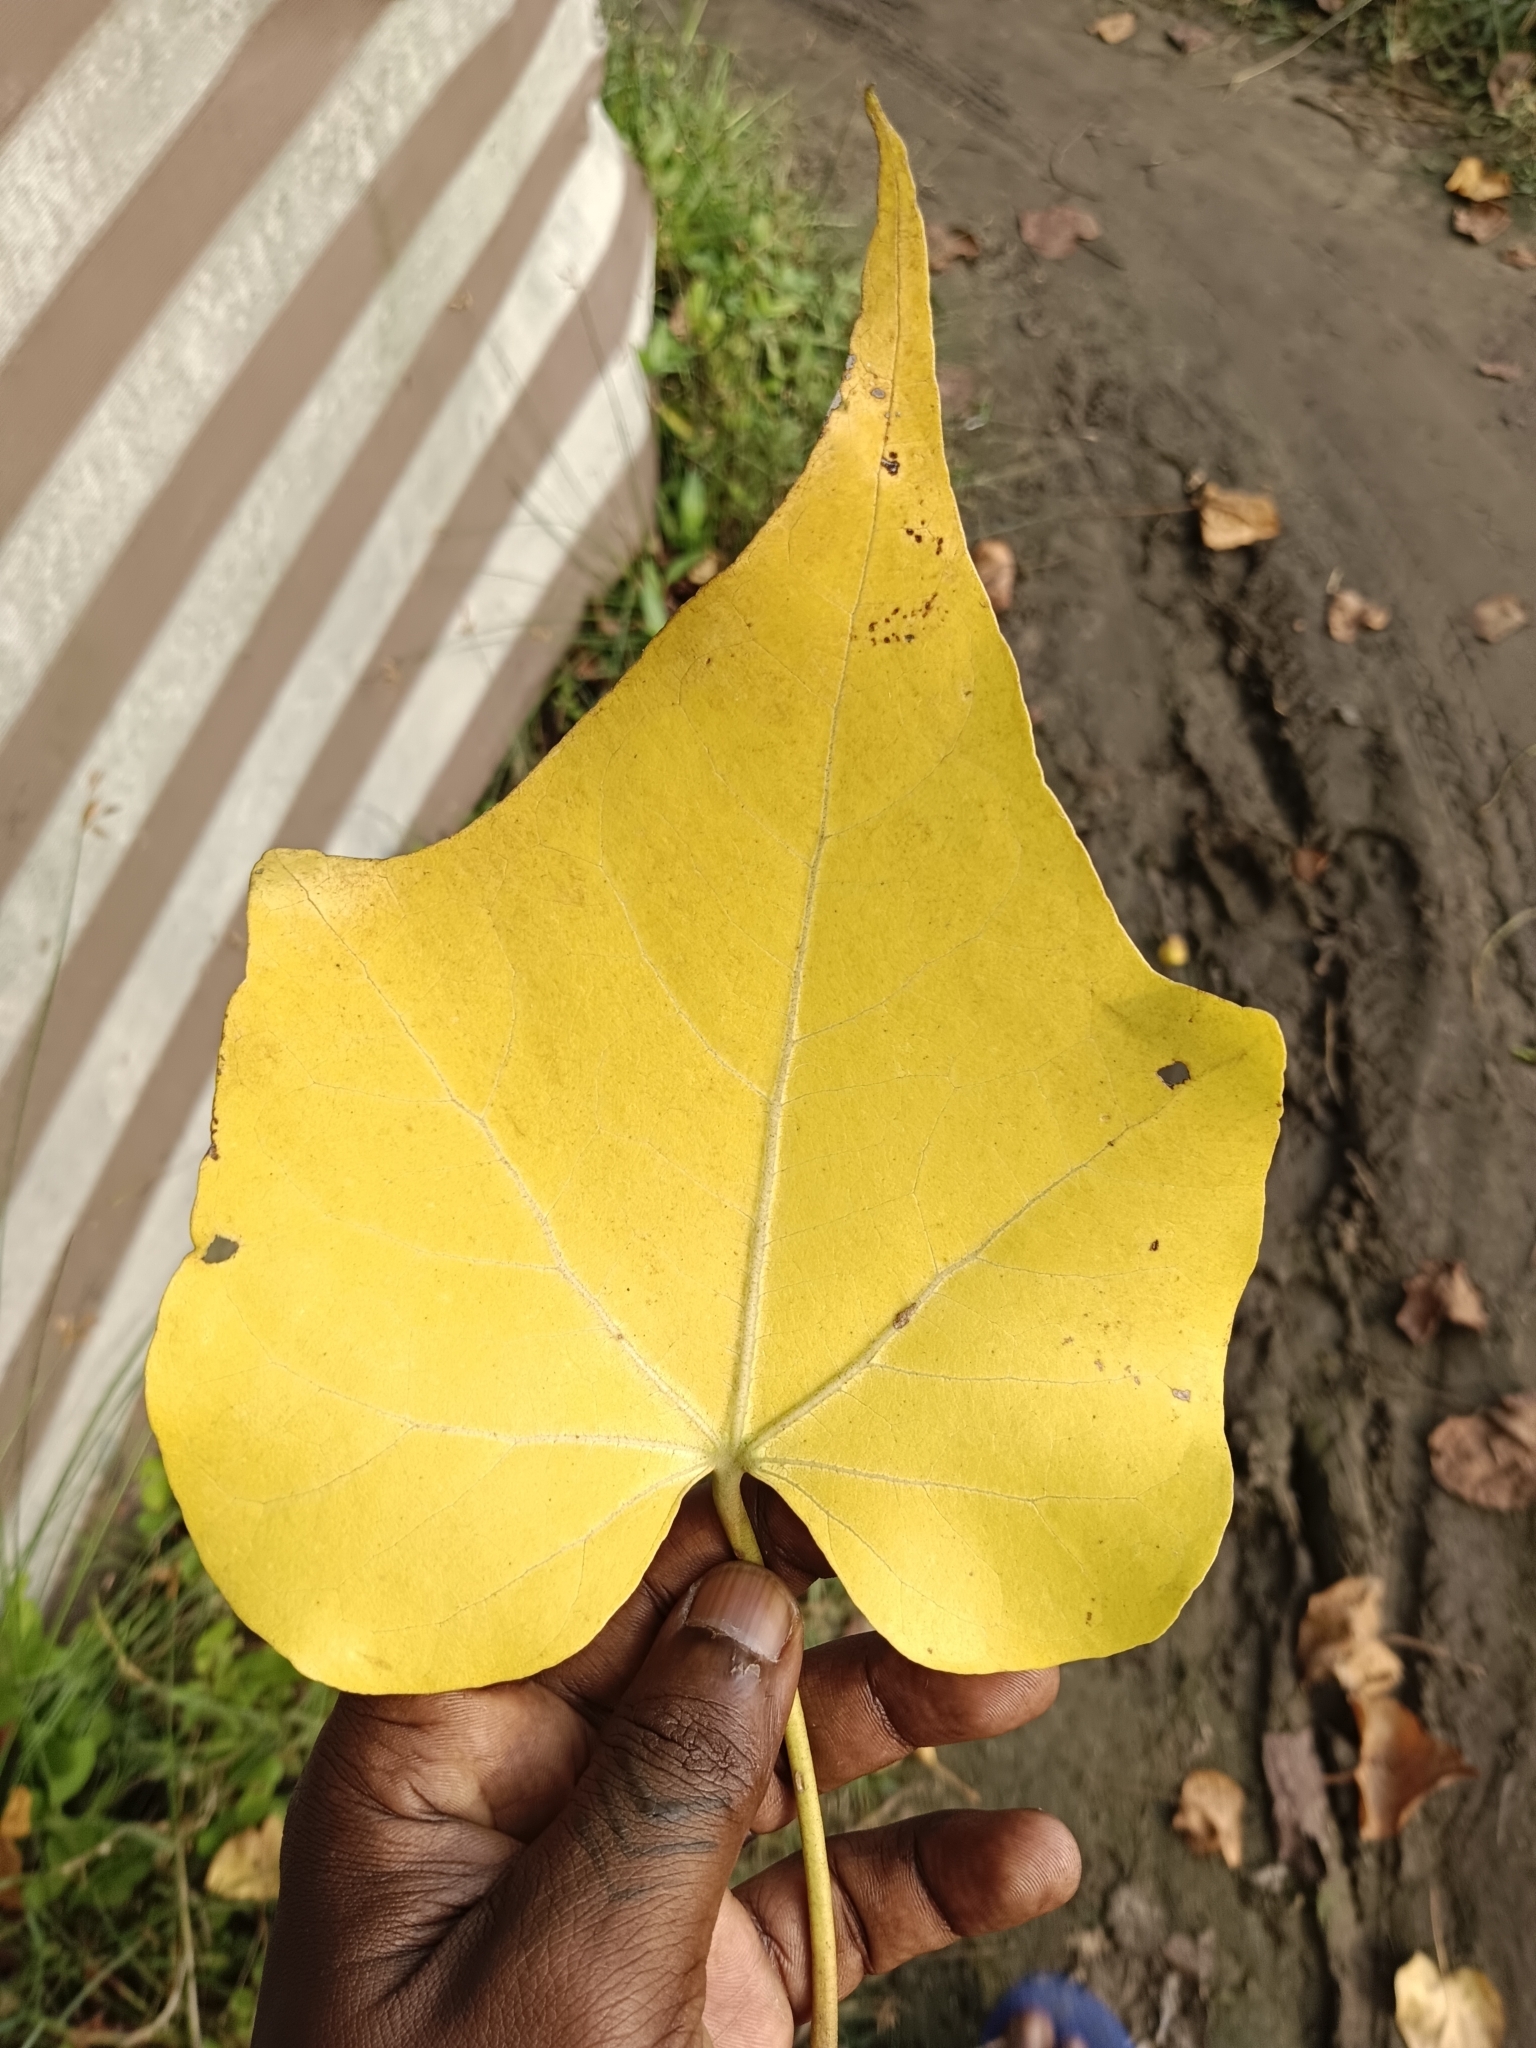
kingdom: Plantae
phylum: Tracheophyta
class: Magnoliopsida
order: Malvales
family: Malvaceae
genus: Thespesia
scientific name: Thespesia populnea
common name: Seaside mahoe
